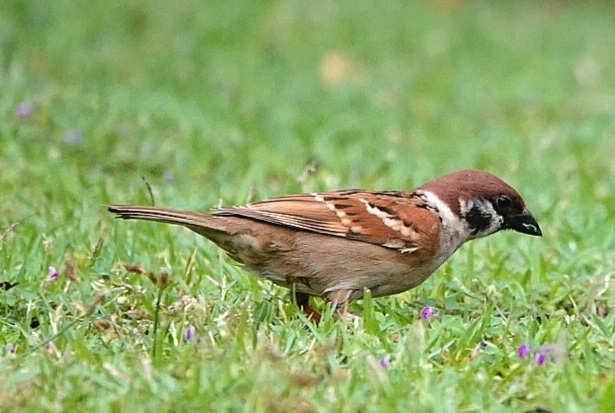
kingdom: Animalia
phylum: Chordata
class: Aves
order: Passeriformes
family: Passeridae
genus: Passer
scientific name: Passer montanus
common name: Eurasian tree sparrow
